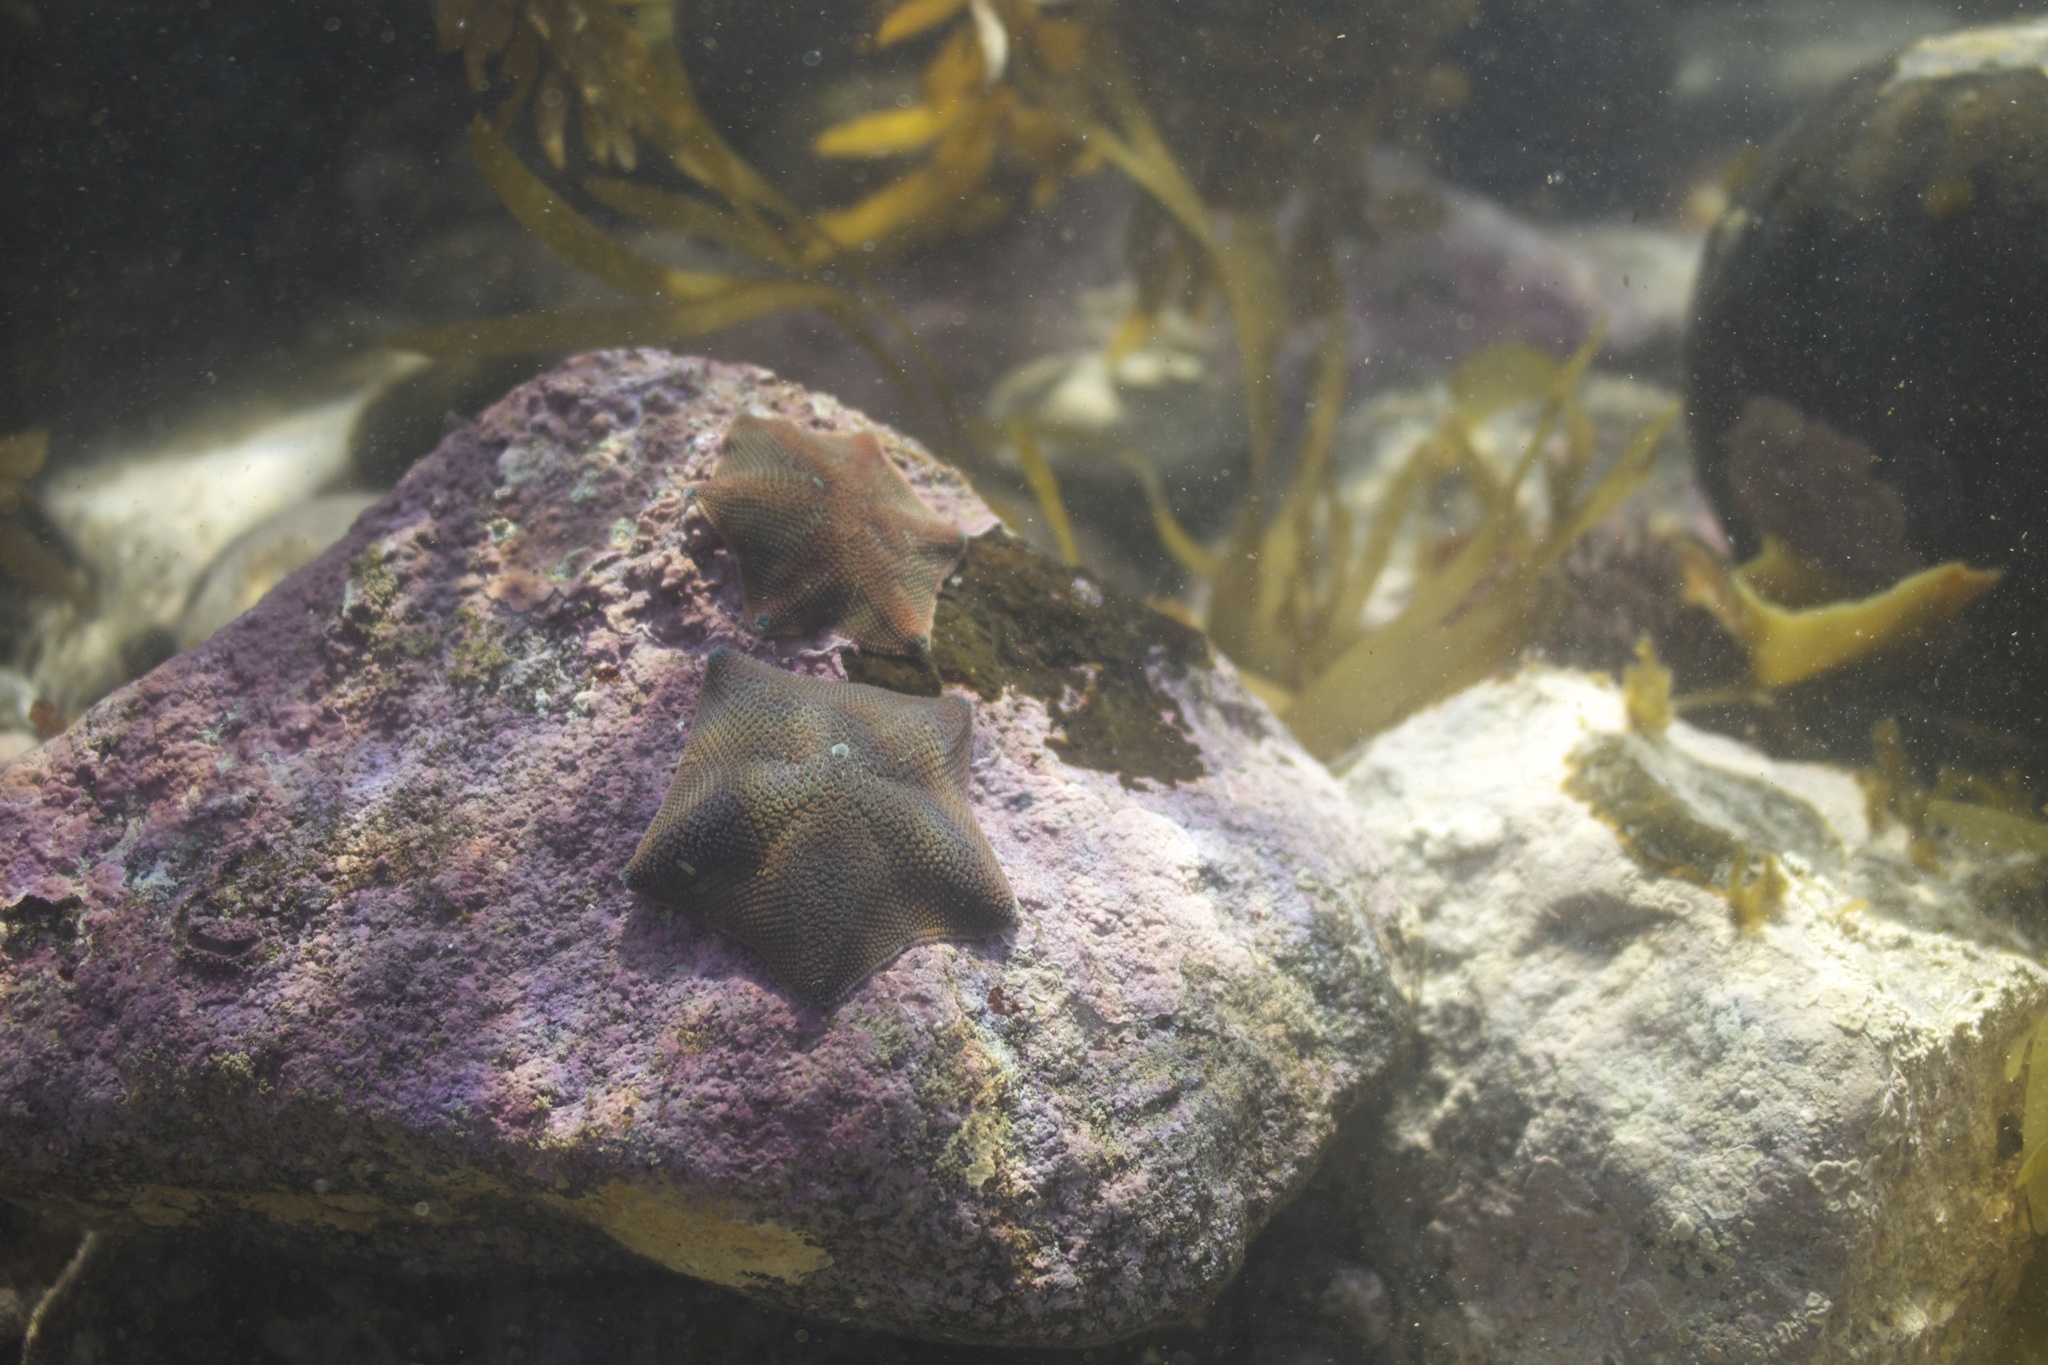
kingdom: Animalia
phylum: Echinodermata
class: Asteroidea
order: Valvatida
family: Asterinidae
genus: Patiriella
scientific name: Patiriella regularis
